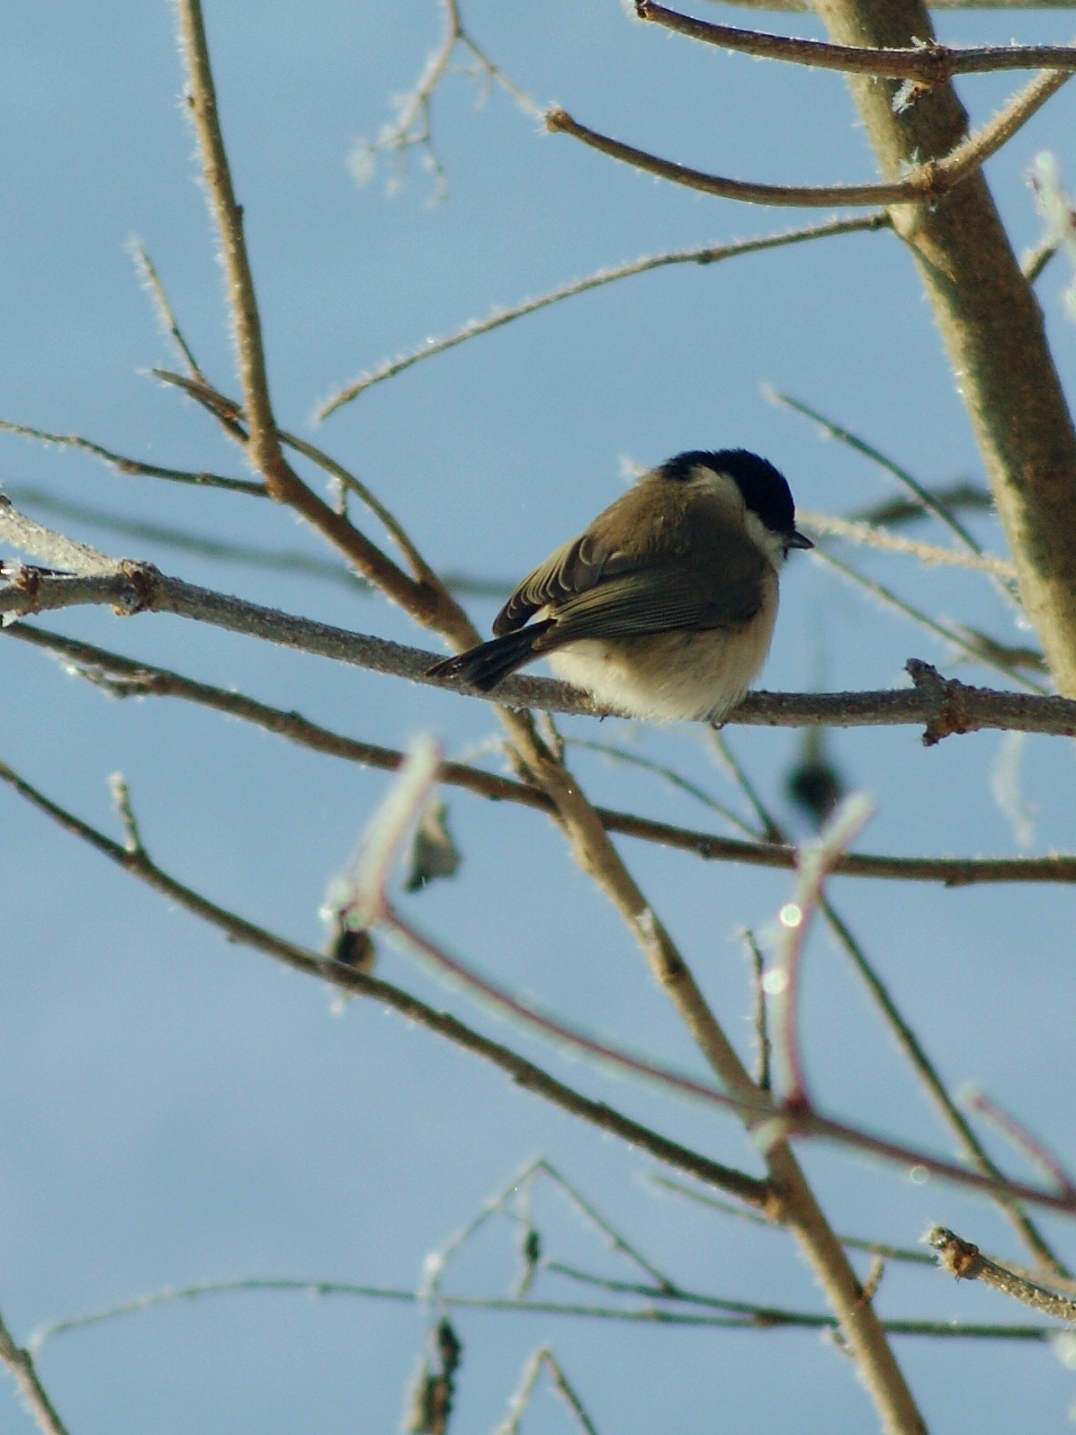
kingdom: Animalia
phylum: Chordata
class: Aves
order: Passeriformes
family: Paridae
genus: Poecile
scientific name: Poecile palustris
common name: Marsh tit
